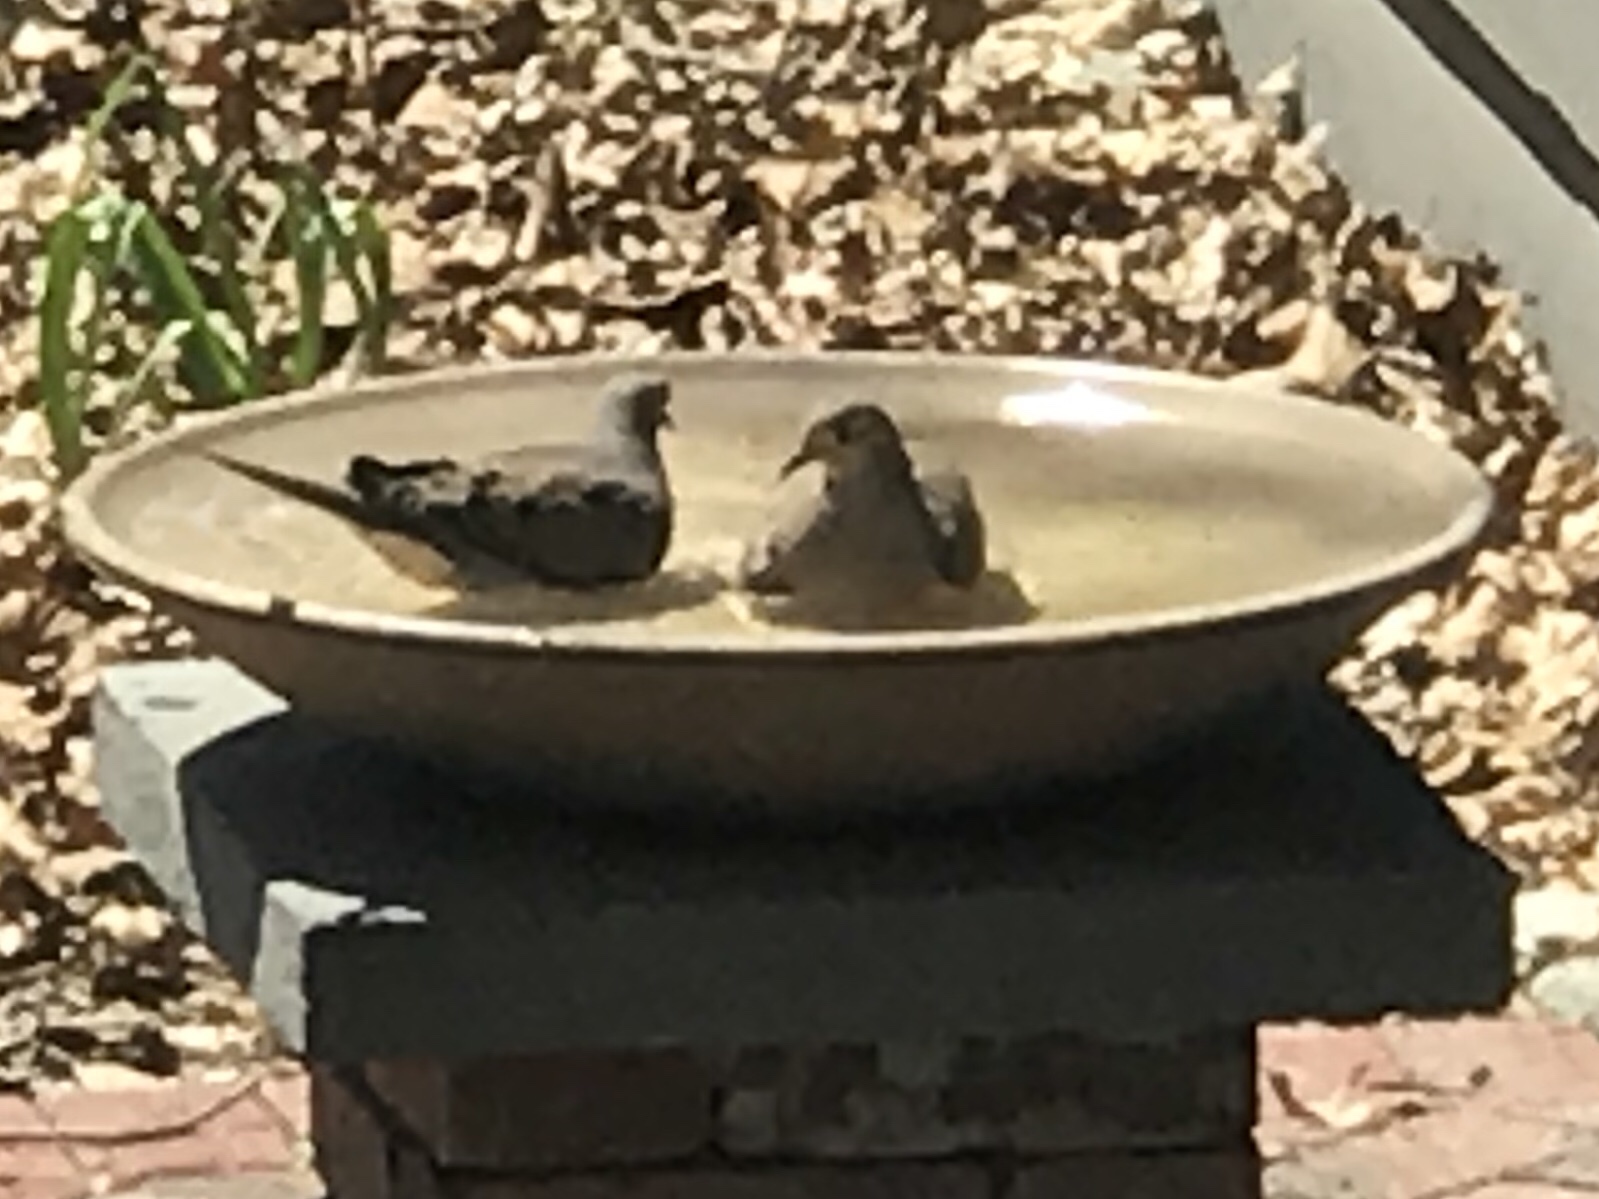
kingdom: Animalia
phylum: Chordata
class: Aves
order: Columbiformes
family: Columbidae
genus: Zenaida
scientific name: Zenaida macroura
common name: Mourning dove
